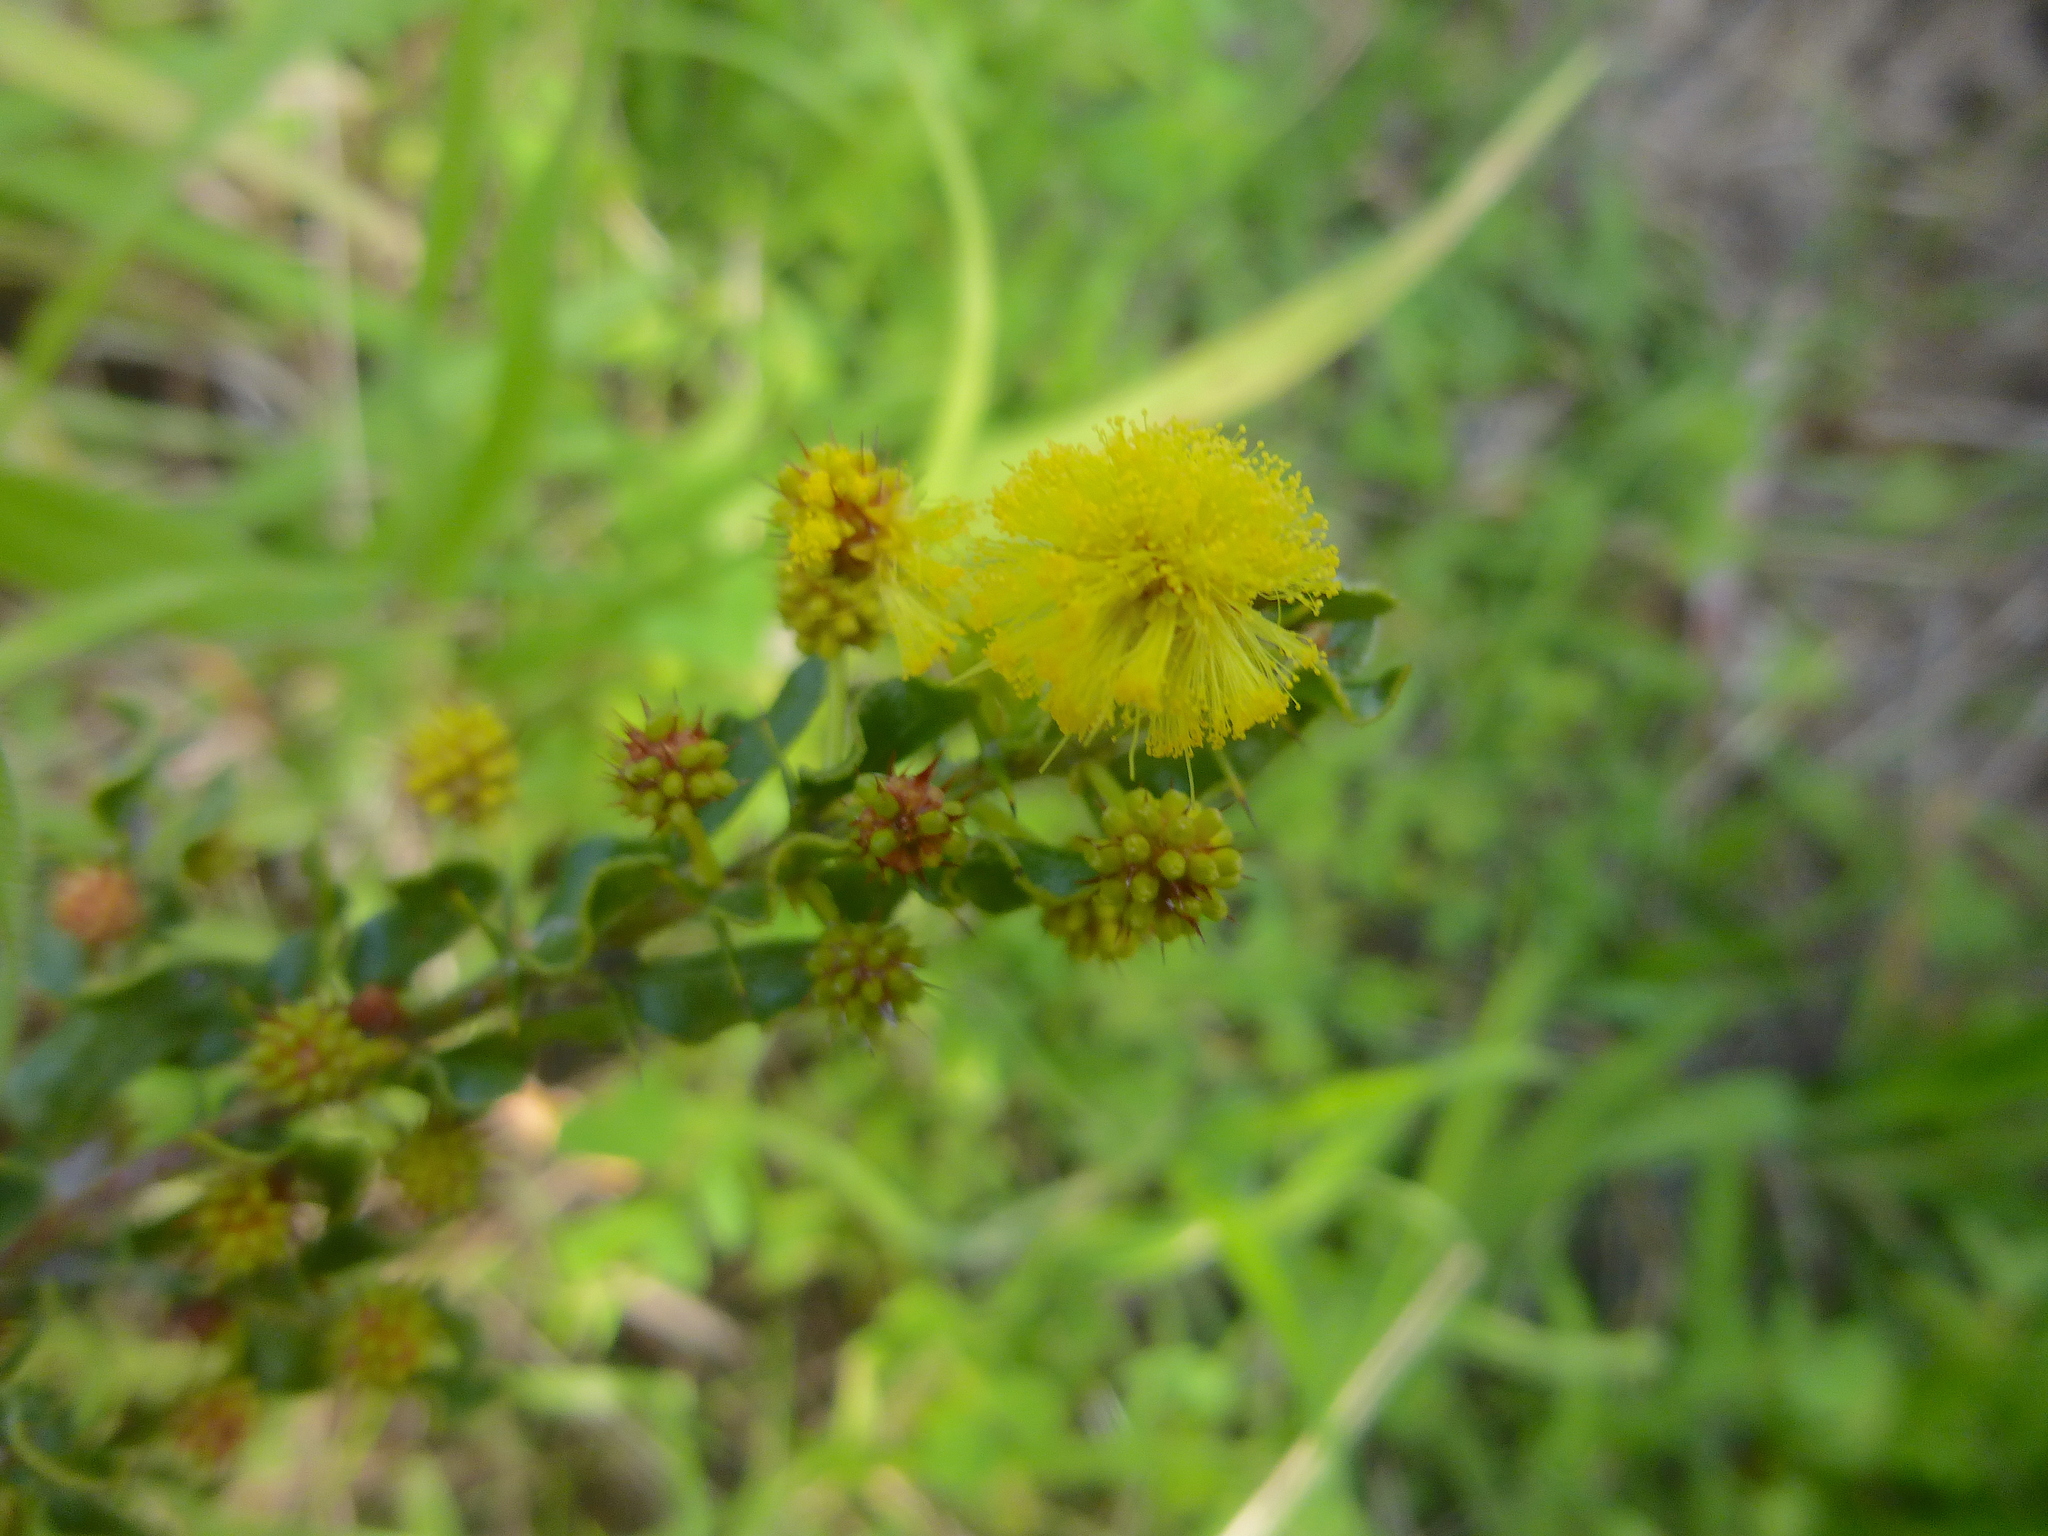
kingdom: Plantae
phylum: Tracheophyta
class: Magnoliopsida
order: Fabales
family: Fabaceae
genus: Acacia
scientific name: Acacia paradoxa
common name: Paradox acacia
